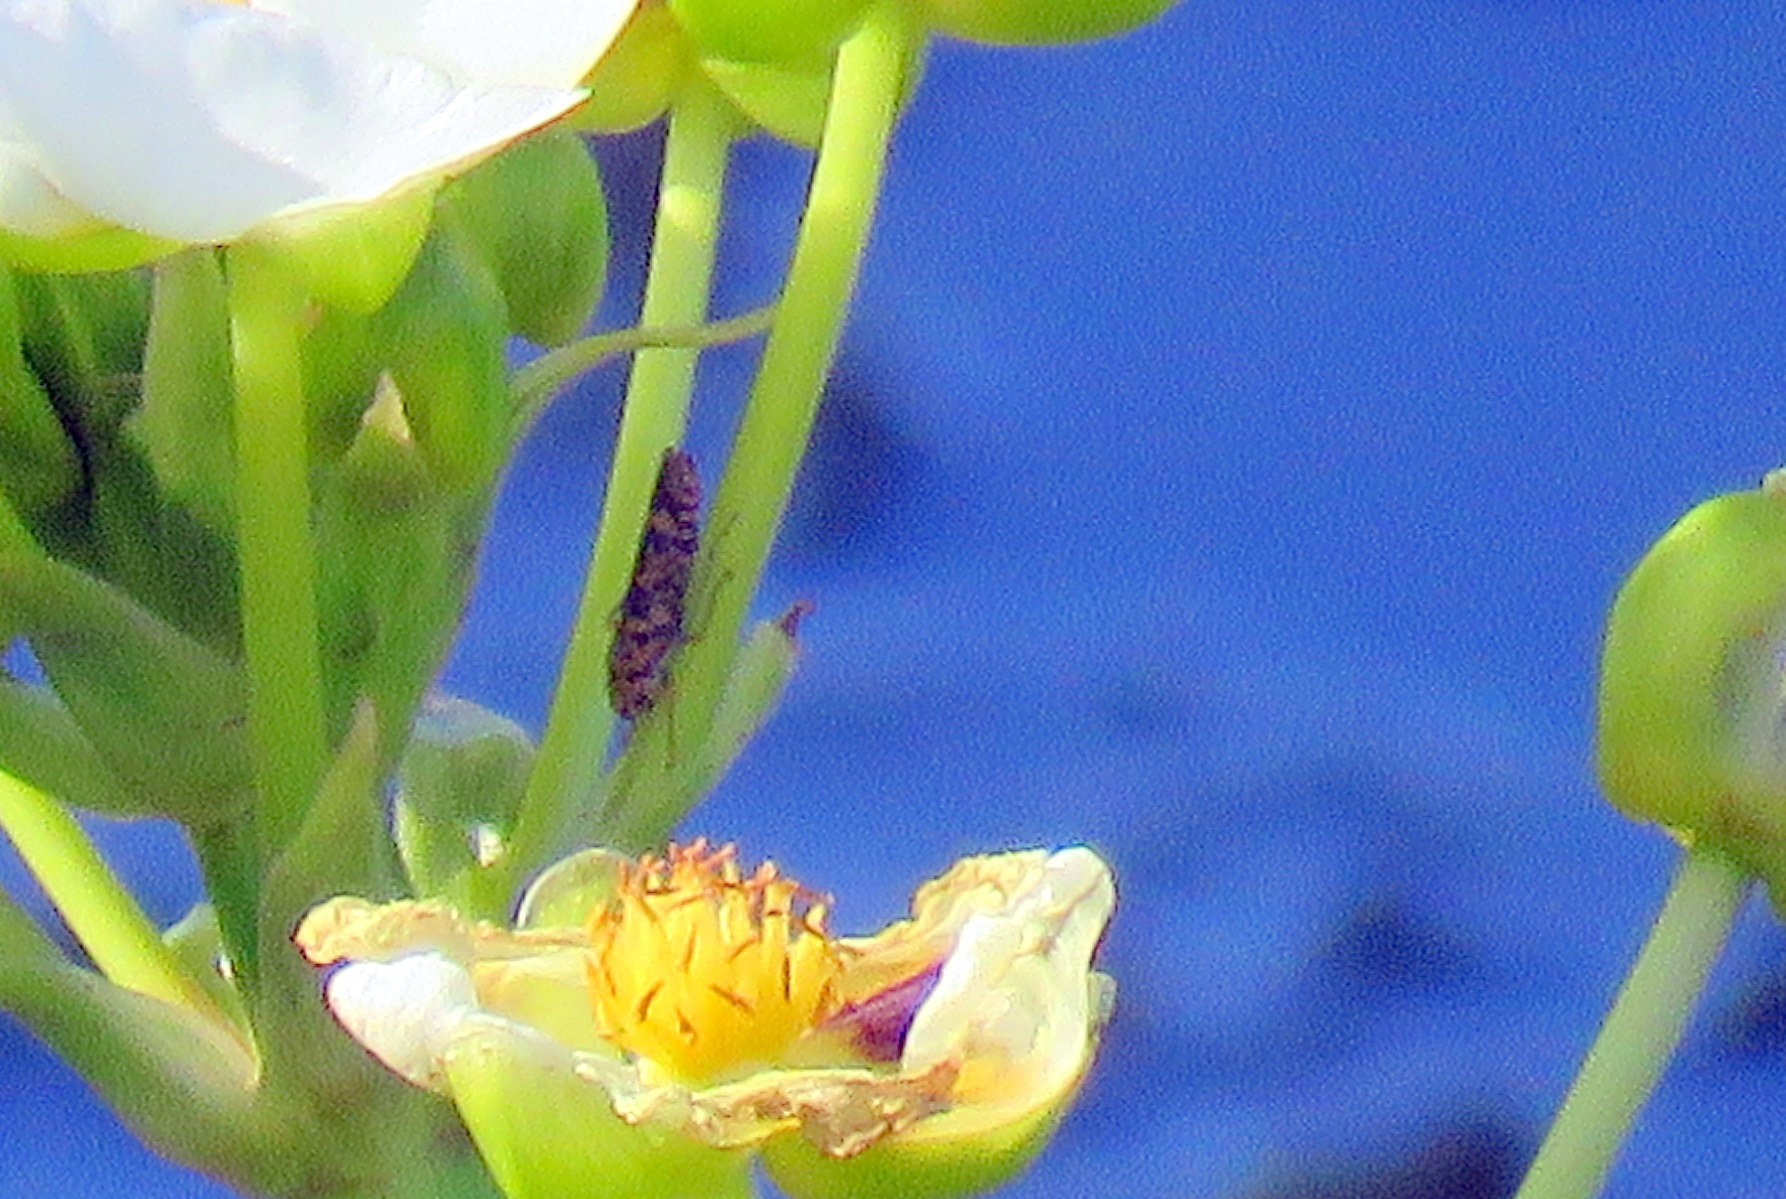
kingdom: Animalia
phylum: Arthropoda
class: Insecta
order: Hemiptera
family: Cicadellidae
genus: Pawiloma
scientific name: Pawiloma victima
